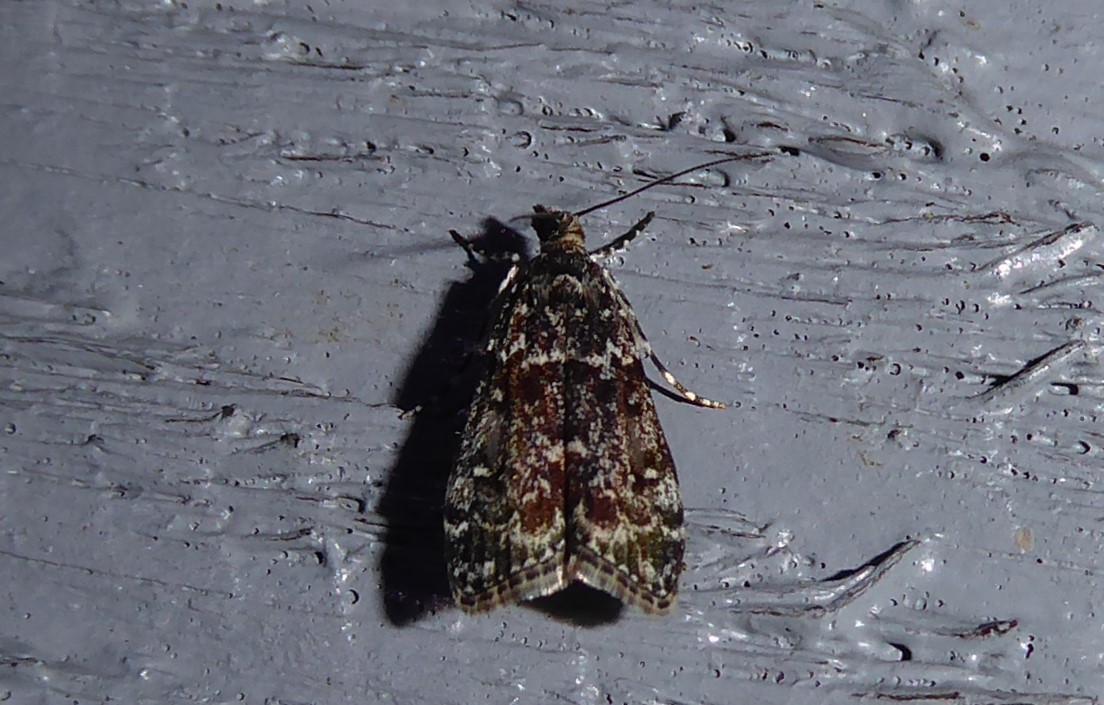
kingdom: Animalia
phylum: Arthropoda
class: Insecta
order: Lepidoptera
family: Crambidae
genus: Eudonia
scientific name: Eudonia philerga
